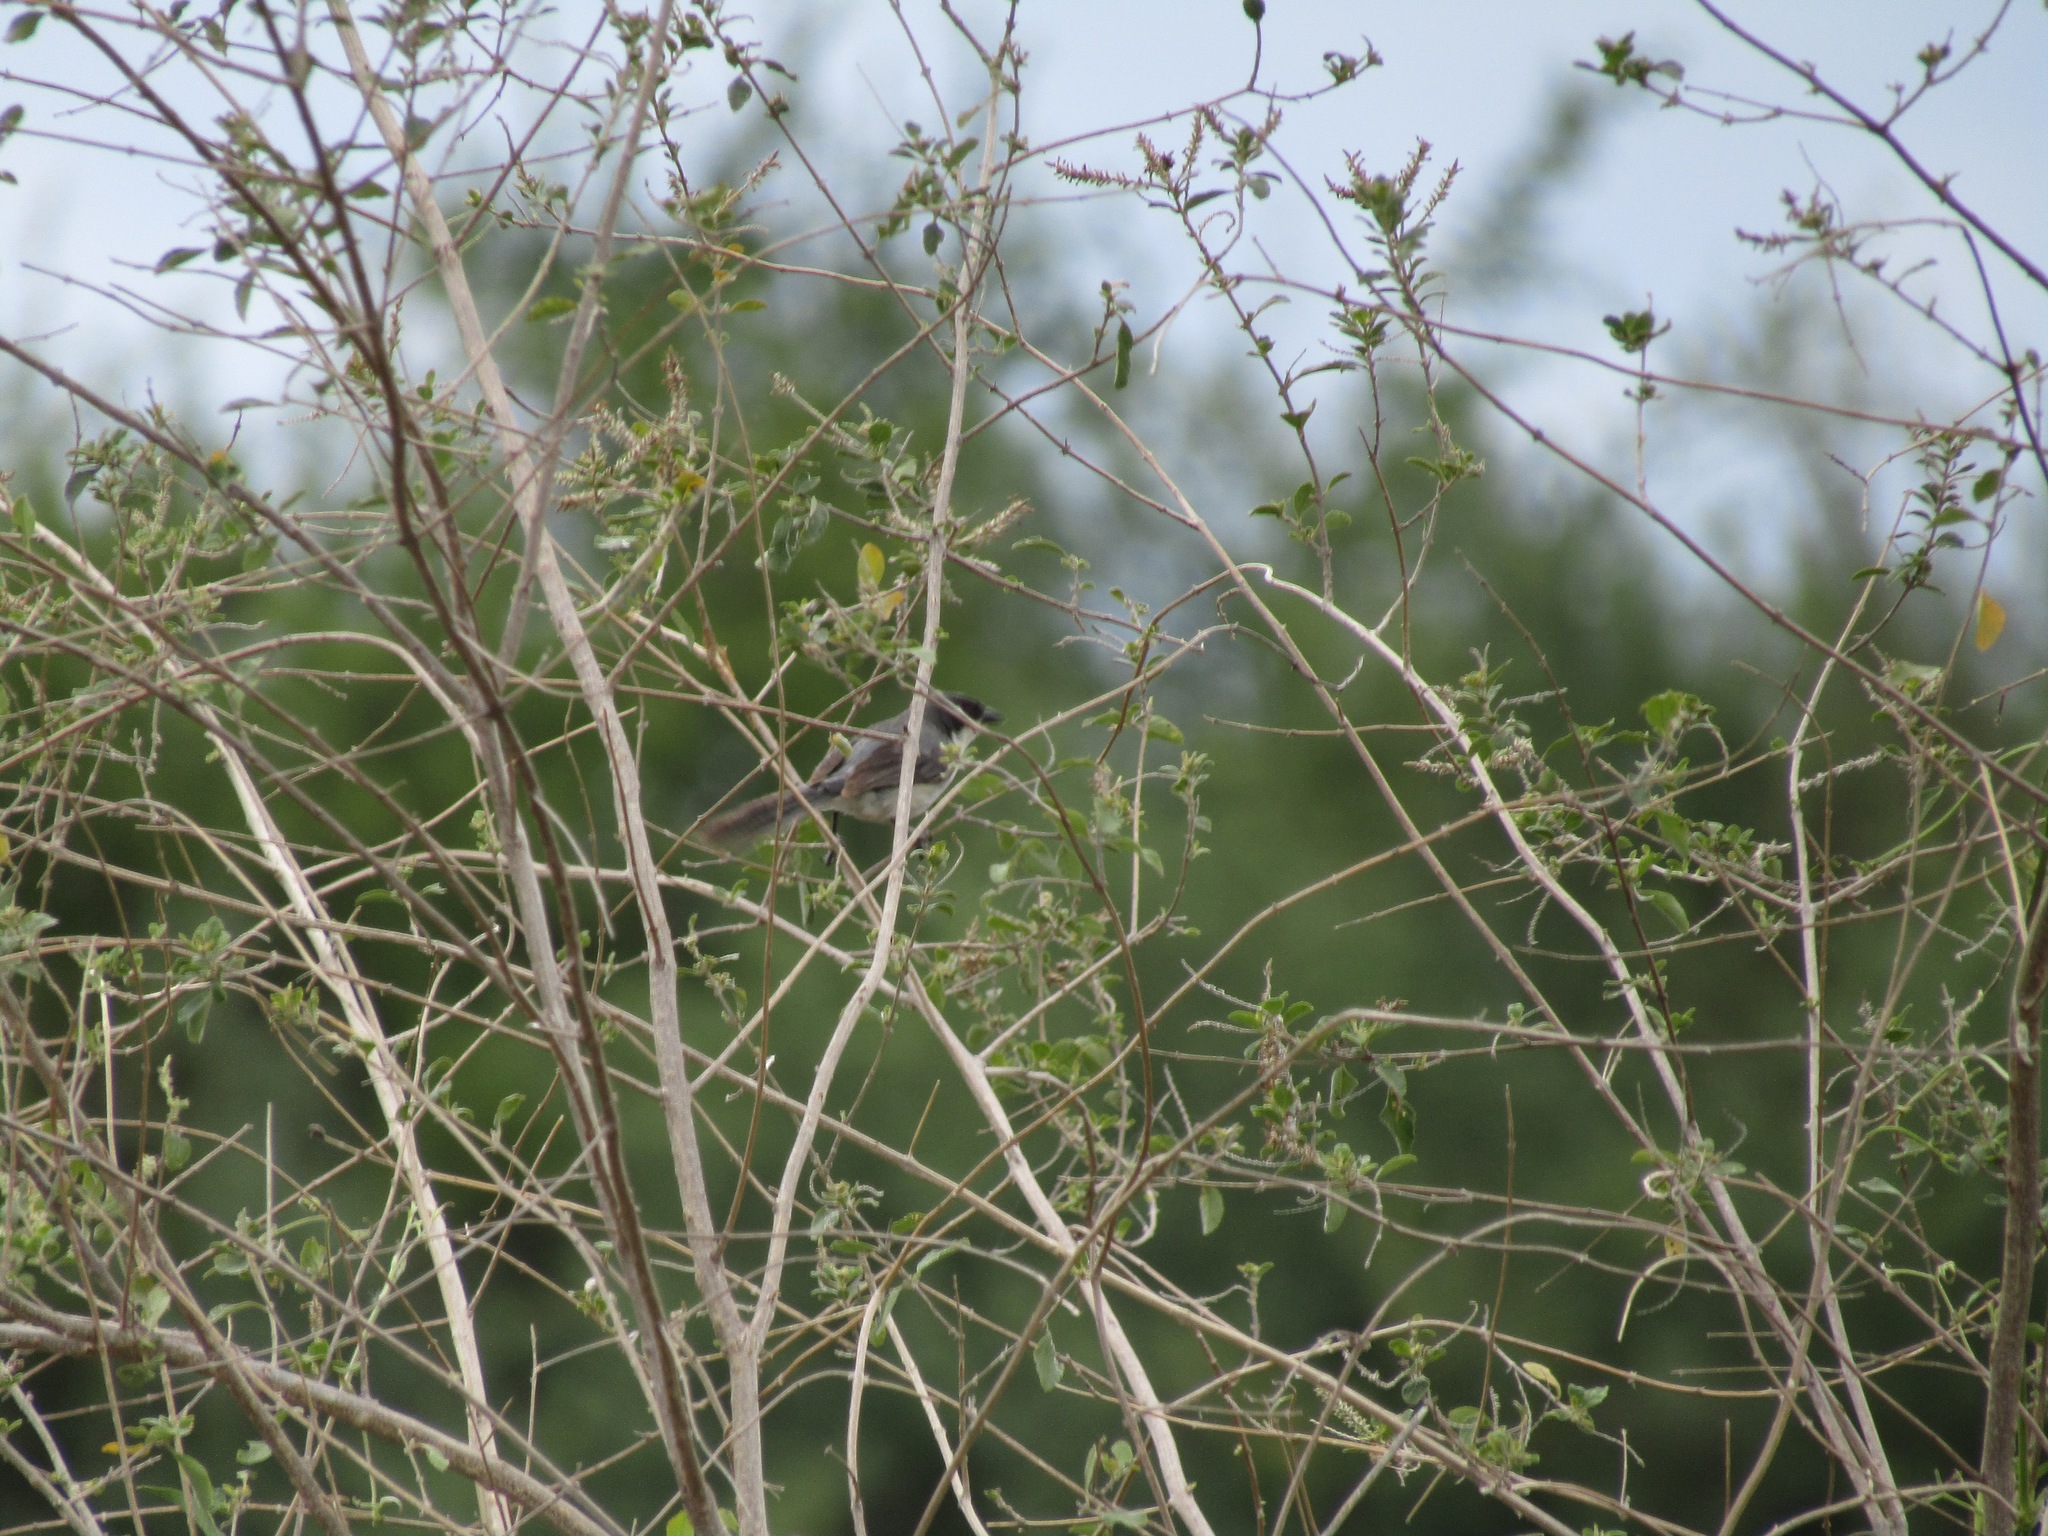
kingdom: Animalia
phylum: Chordata
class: Aves
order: Passeriformes
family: Thraupidae
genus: Microspingus
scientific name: Microspingus melanoleucus
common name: Black-capped warbling-finch
